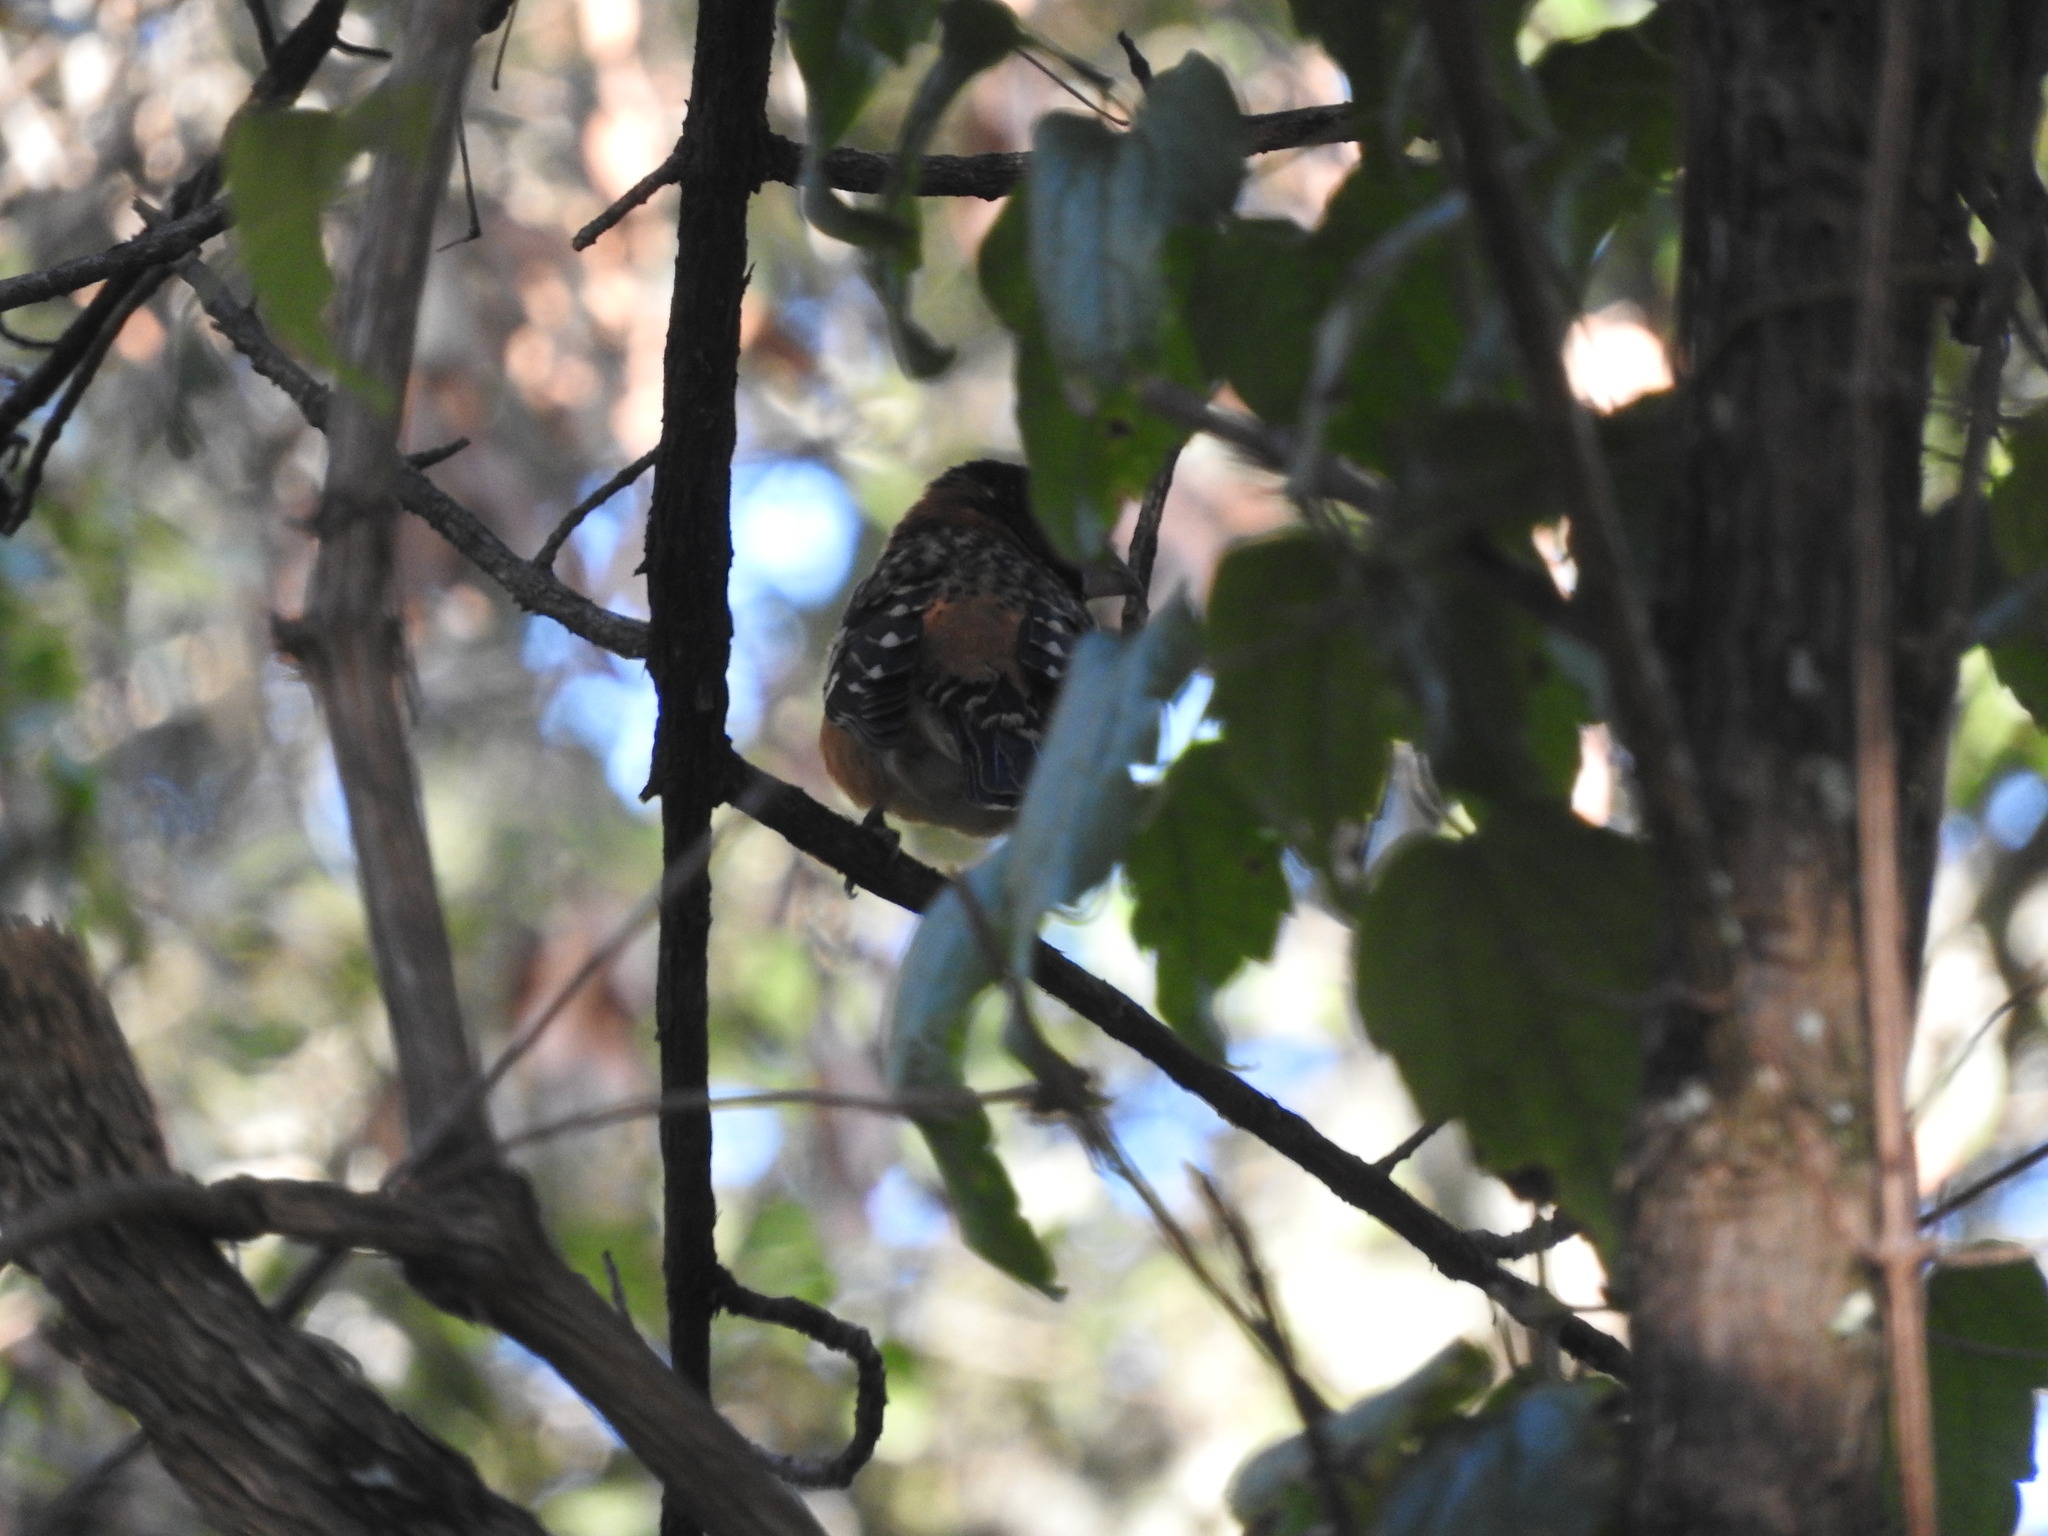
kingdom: Animalia
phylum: Chordata
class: Aves
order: Passeriformes
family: Cardinalidae
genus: Pheucticus
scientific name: Pheucticus melanocephalus
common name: Black-headed grosbeak
